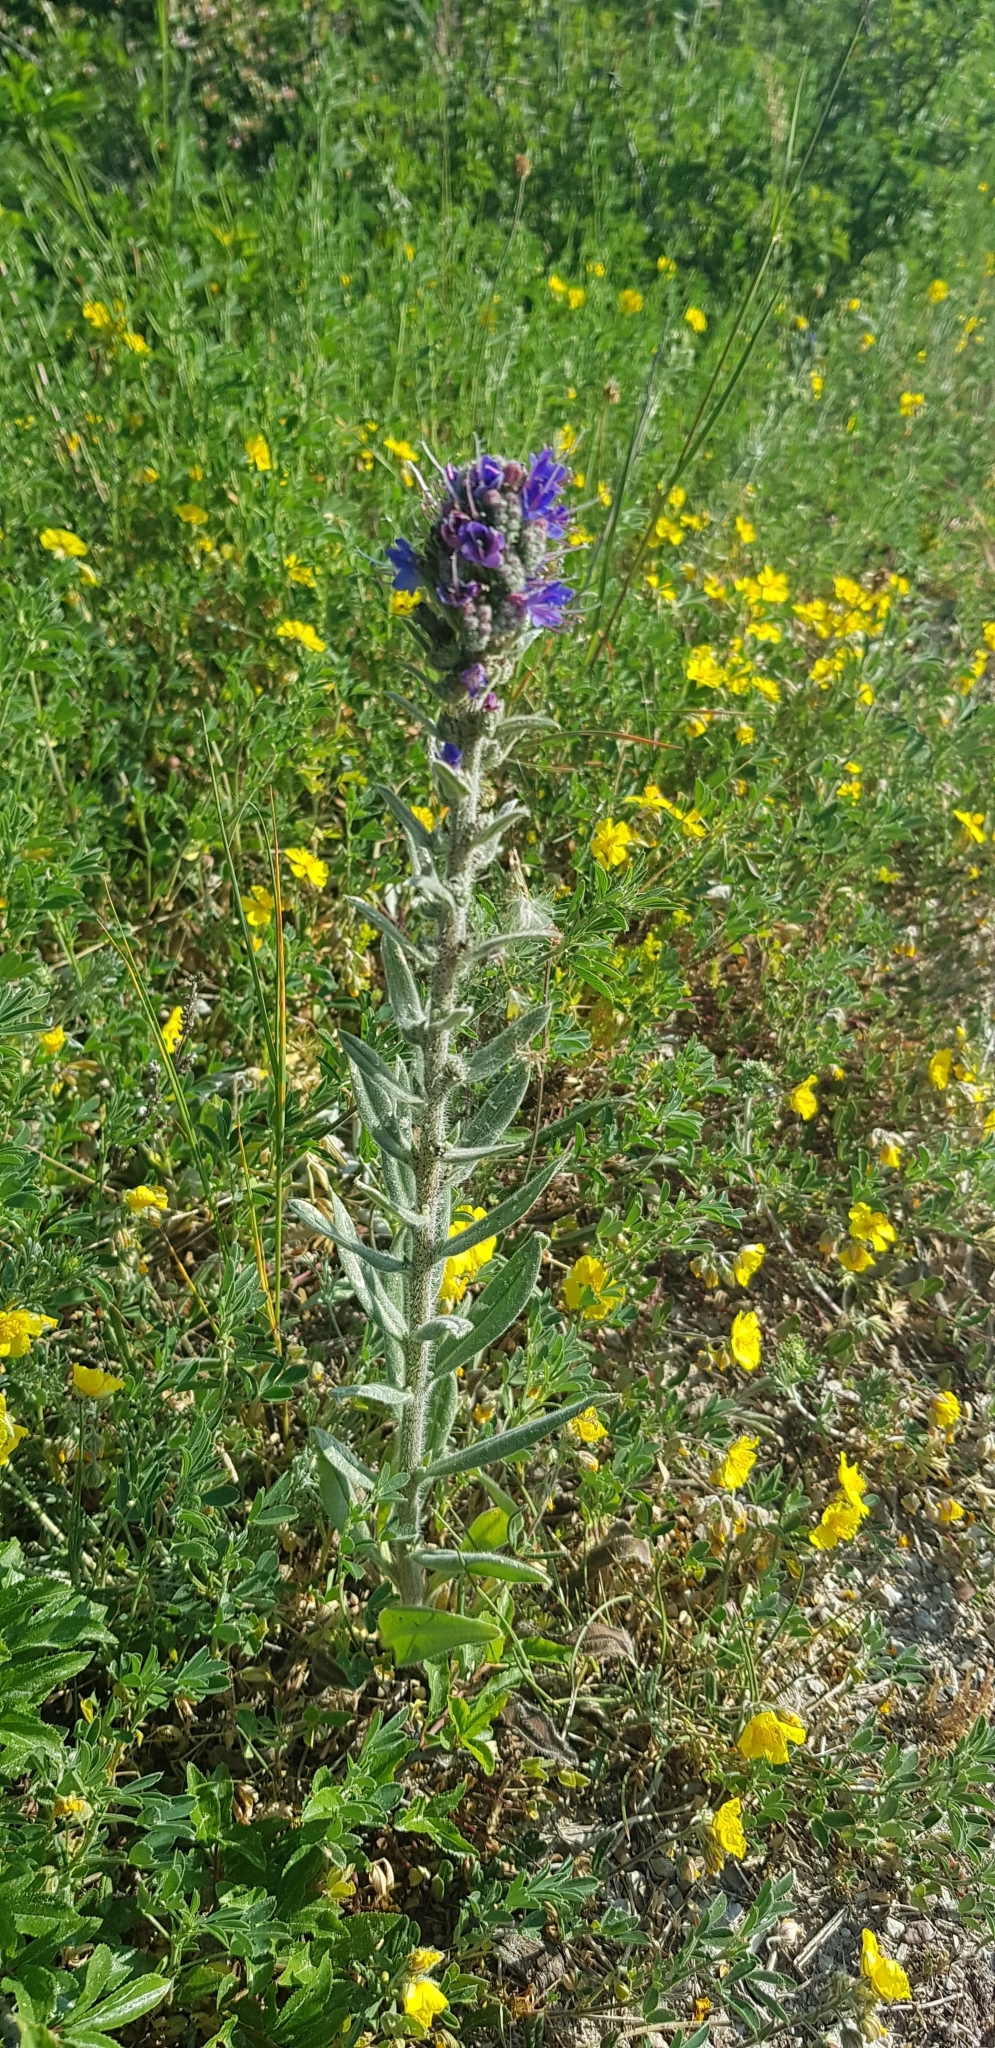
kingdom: Plantae
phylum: Tracheophyta
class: Magnoliopsida
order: Boraginales
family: Boraginaceae
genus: Echium
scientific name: Echium vulgare
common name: Common viper's bugloss
